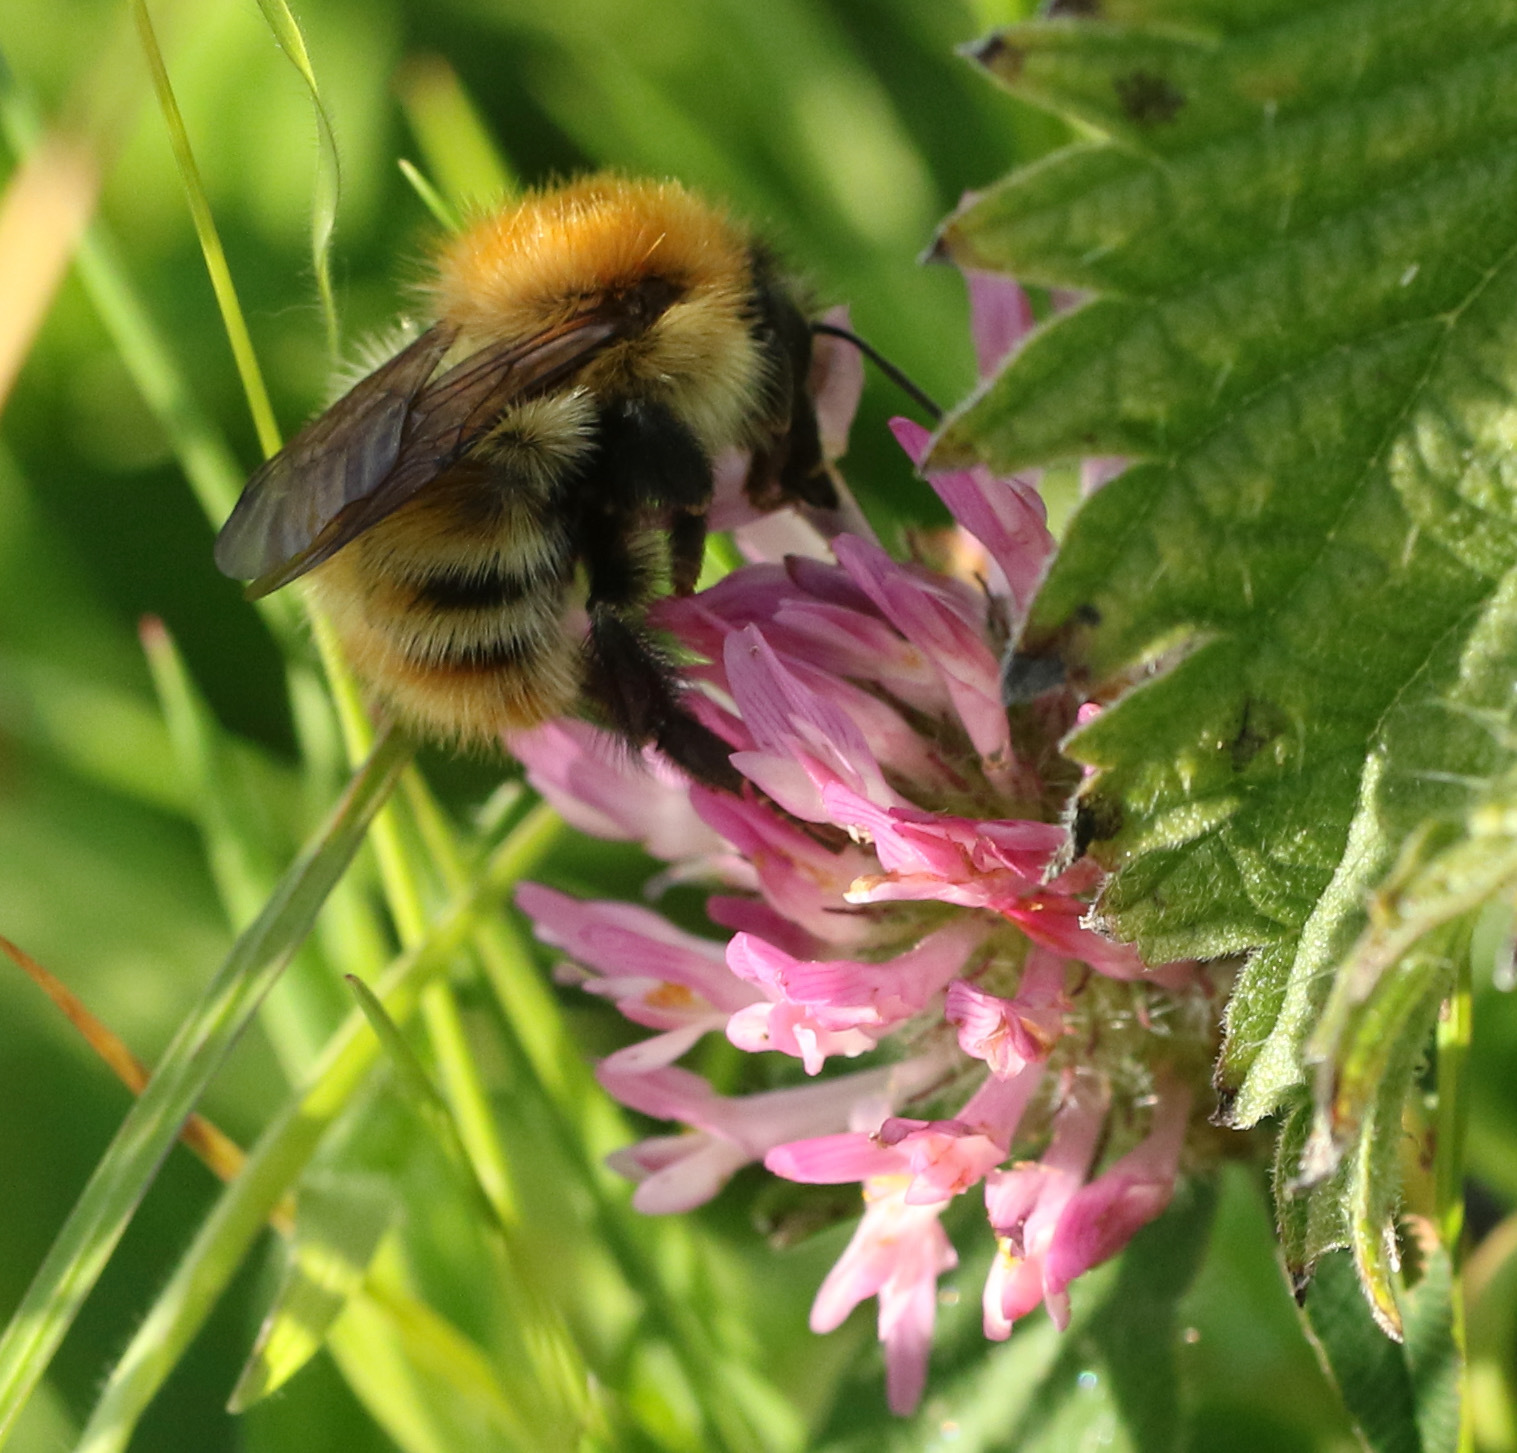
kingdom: Animalia
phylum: Arthropoda
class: Insecta
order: Hymenoptera
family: Apidae
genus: Bombus
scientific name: Bombus pascuorum
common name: Common carder bee
